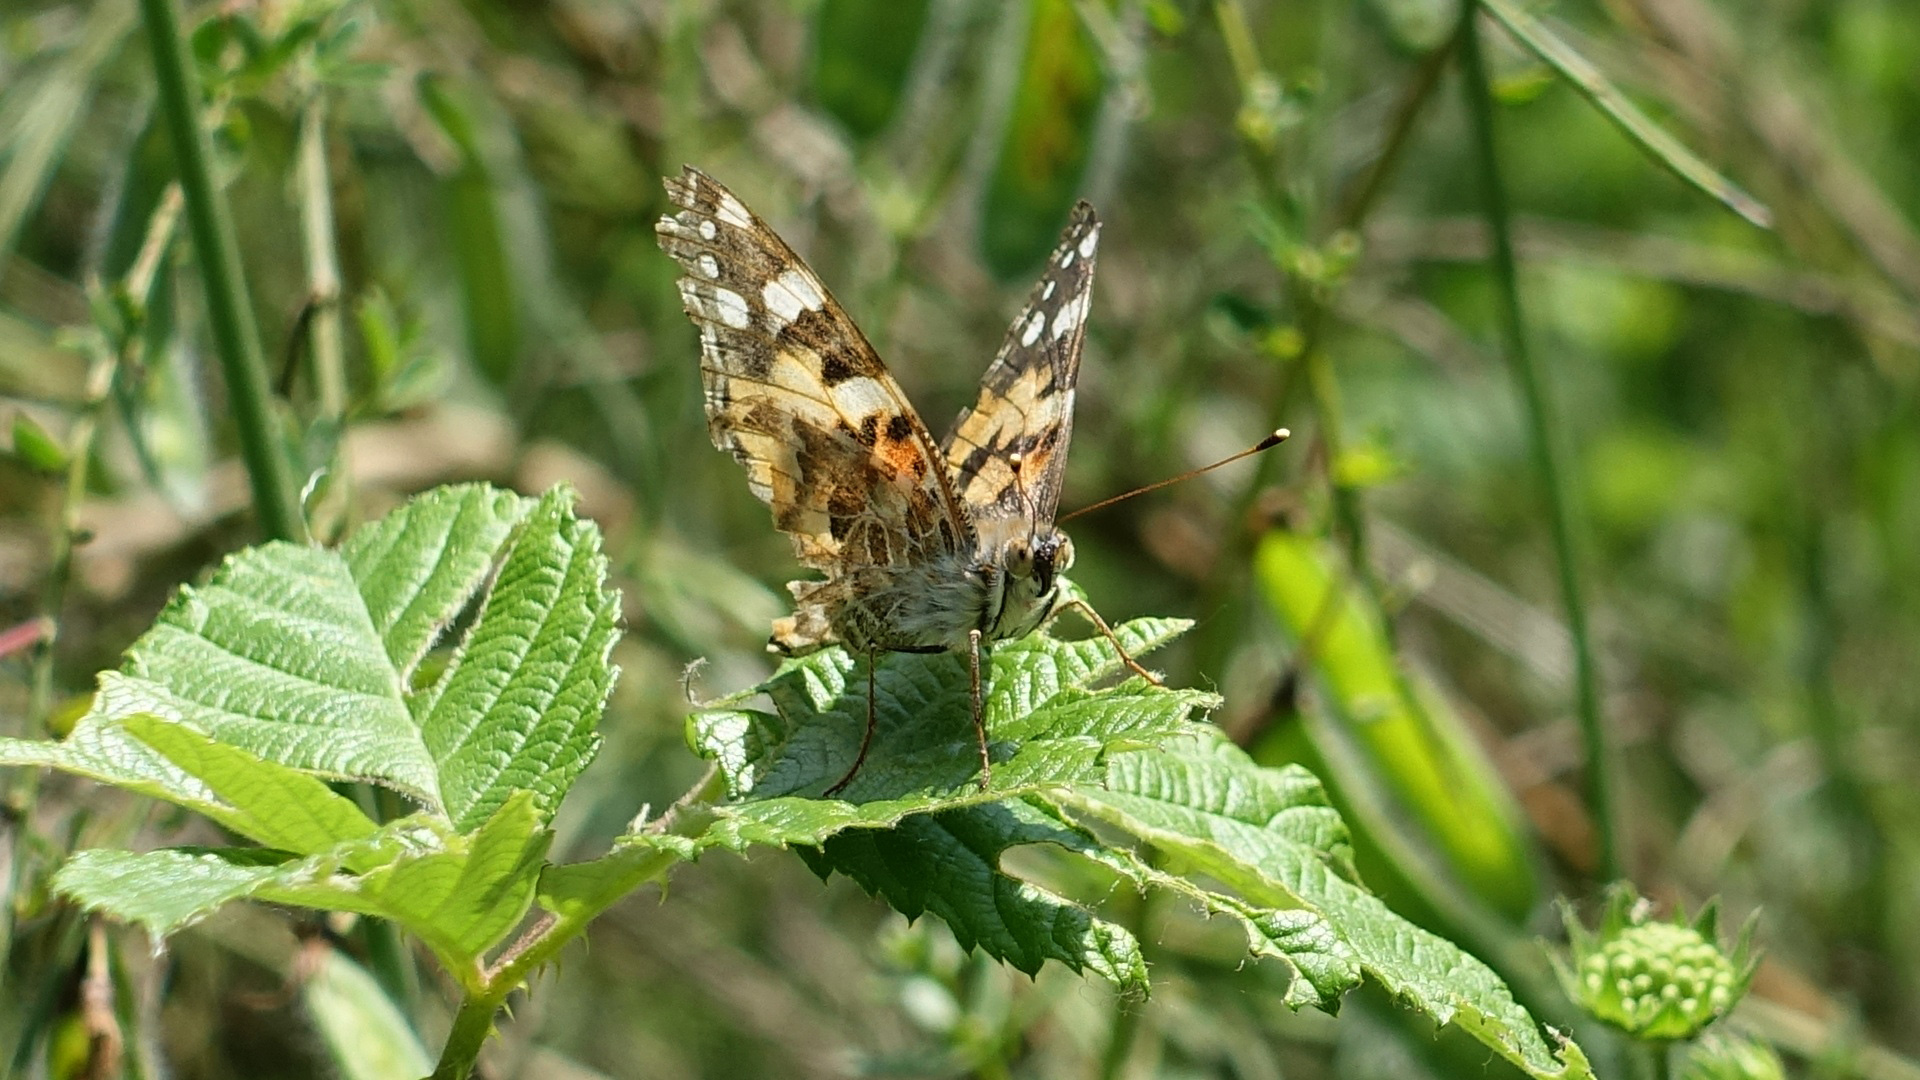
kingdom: Animalia
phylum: Arthropoda
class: Insecta
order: Lepidoptera
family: Nymphalidae
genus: Vanessa
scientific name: Vanessa cardui
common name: Painted lady
